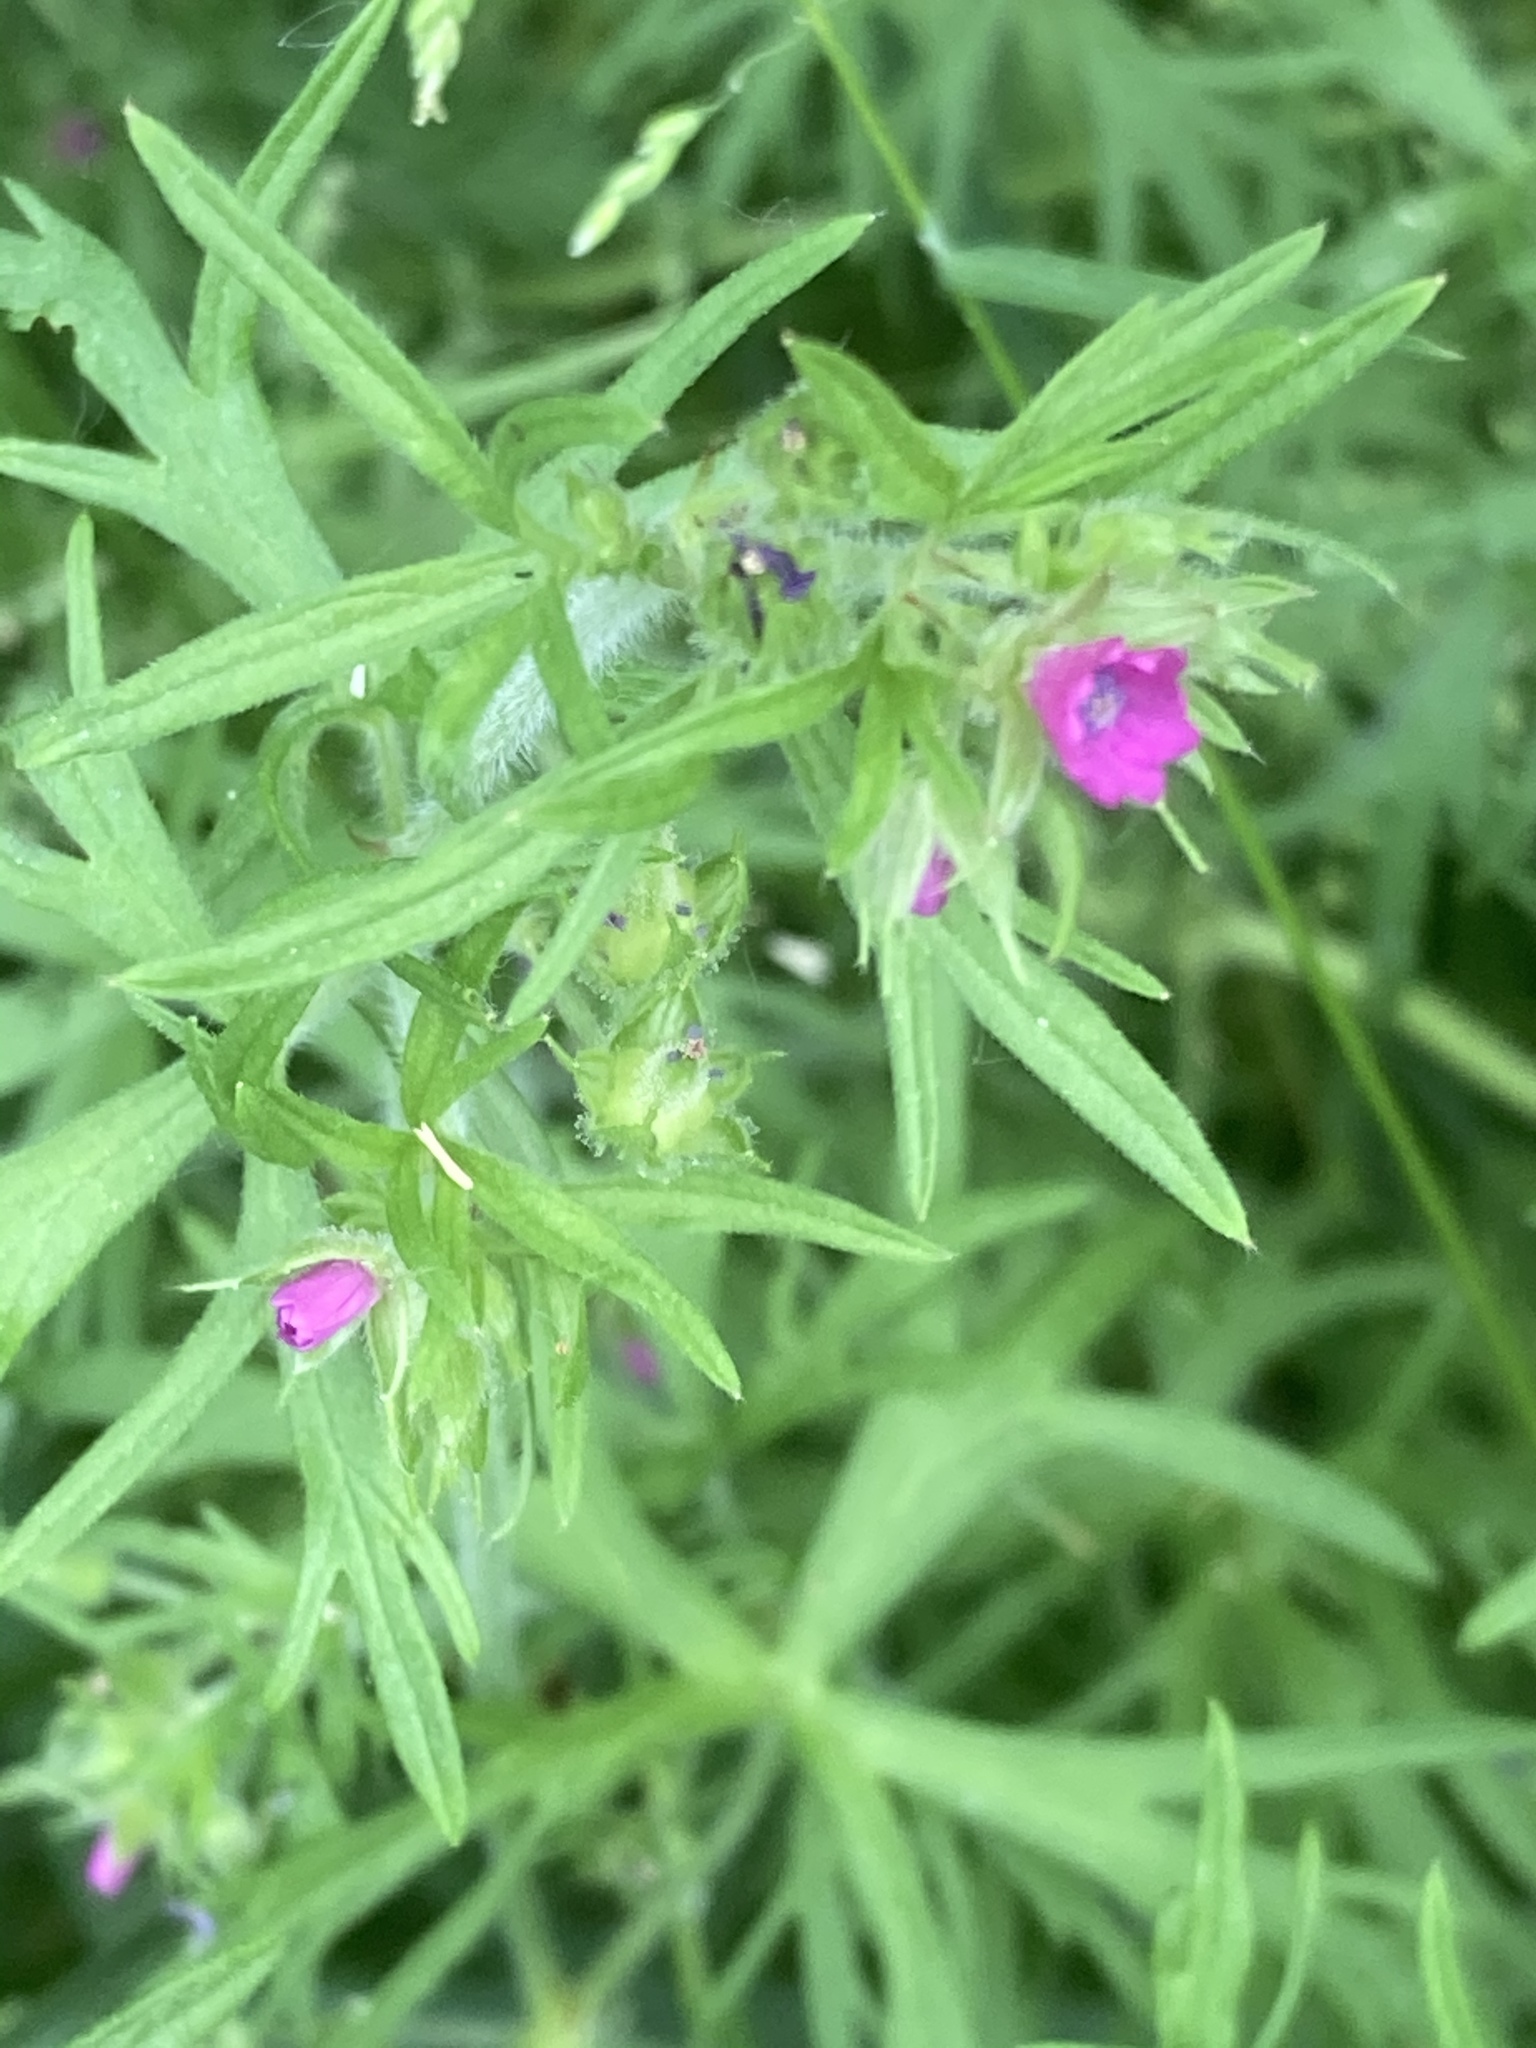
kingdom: Plantae
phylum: Tracheophyta
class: Magnoliopsida
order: Geraniales
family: Geraniaceae
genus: Geranium
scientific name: Geranium dissectum
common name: Cut-leaved crane's-bill
